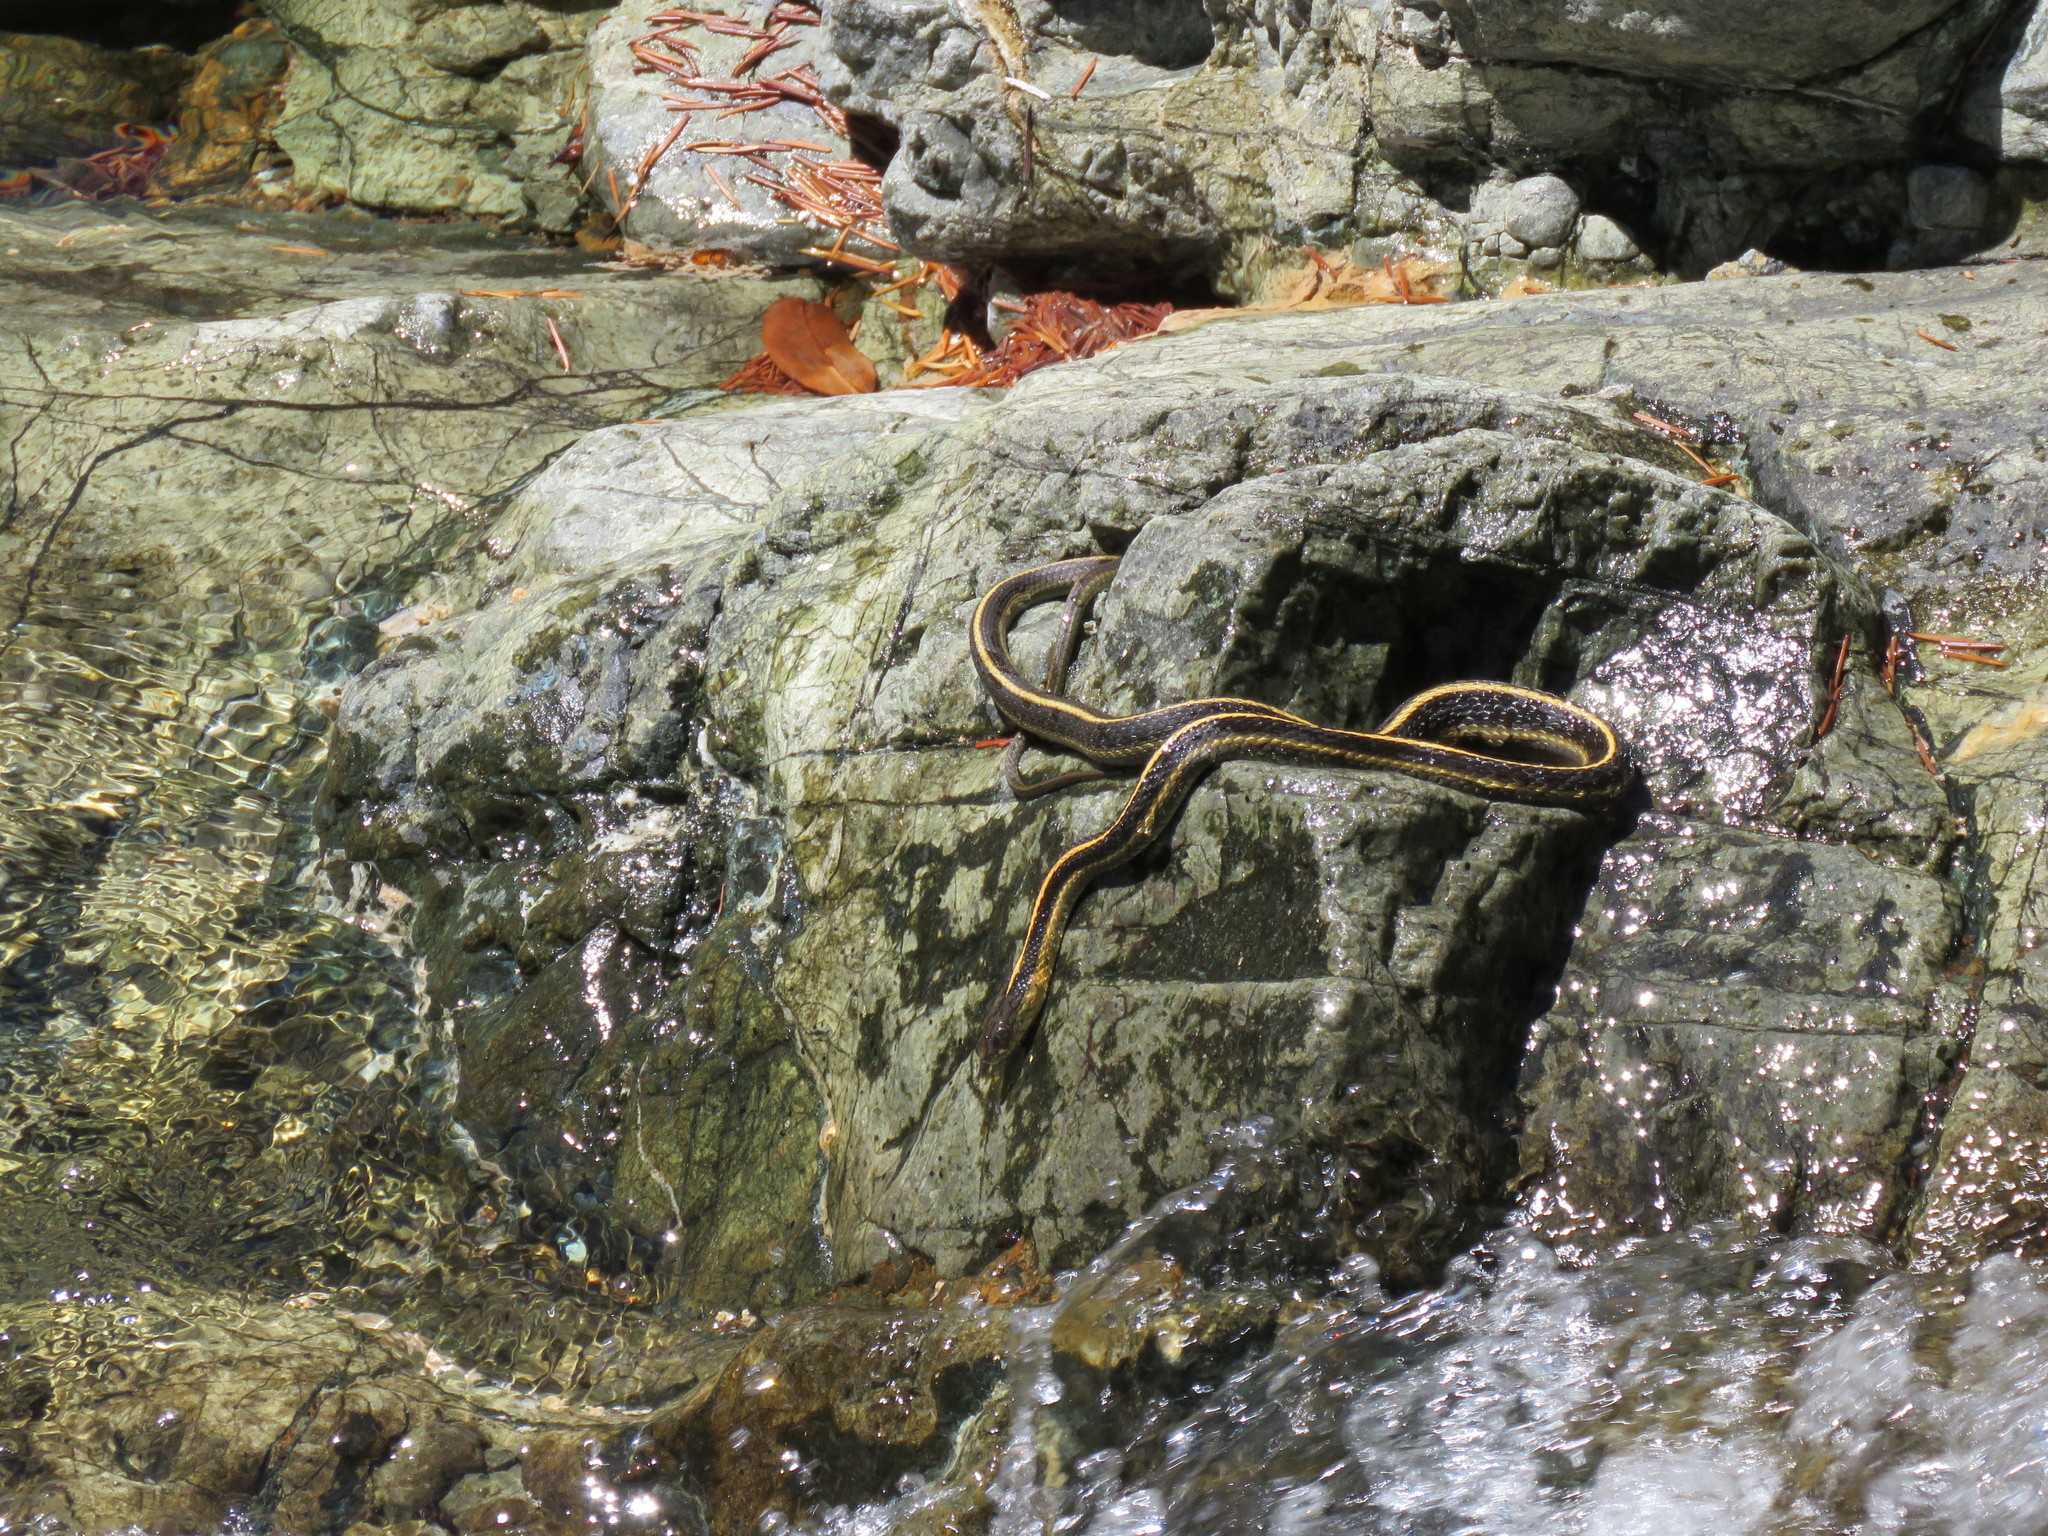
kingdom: Animalia
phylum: Chordata
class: Squamata
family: Colubridae
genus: Thamnophis
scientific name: Thamnophis atratus
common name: Pacific coast aquatic garter snake
